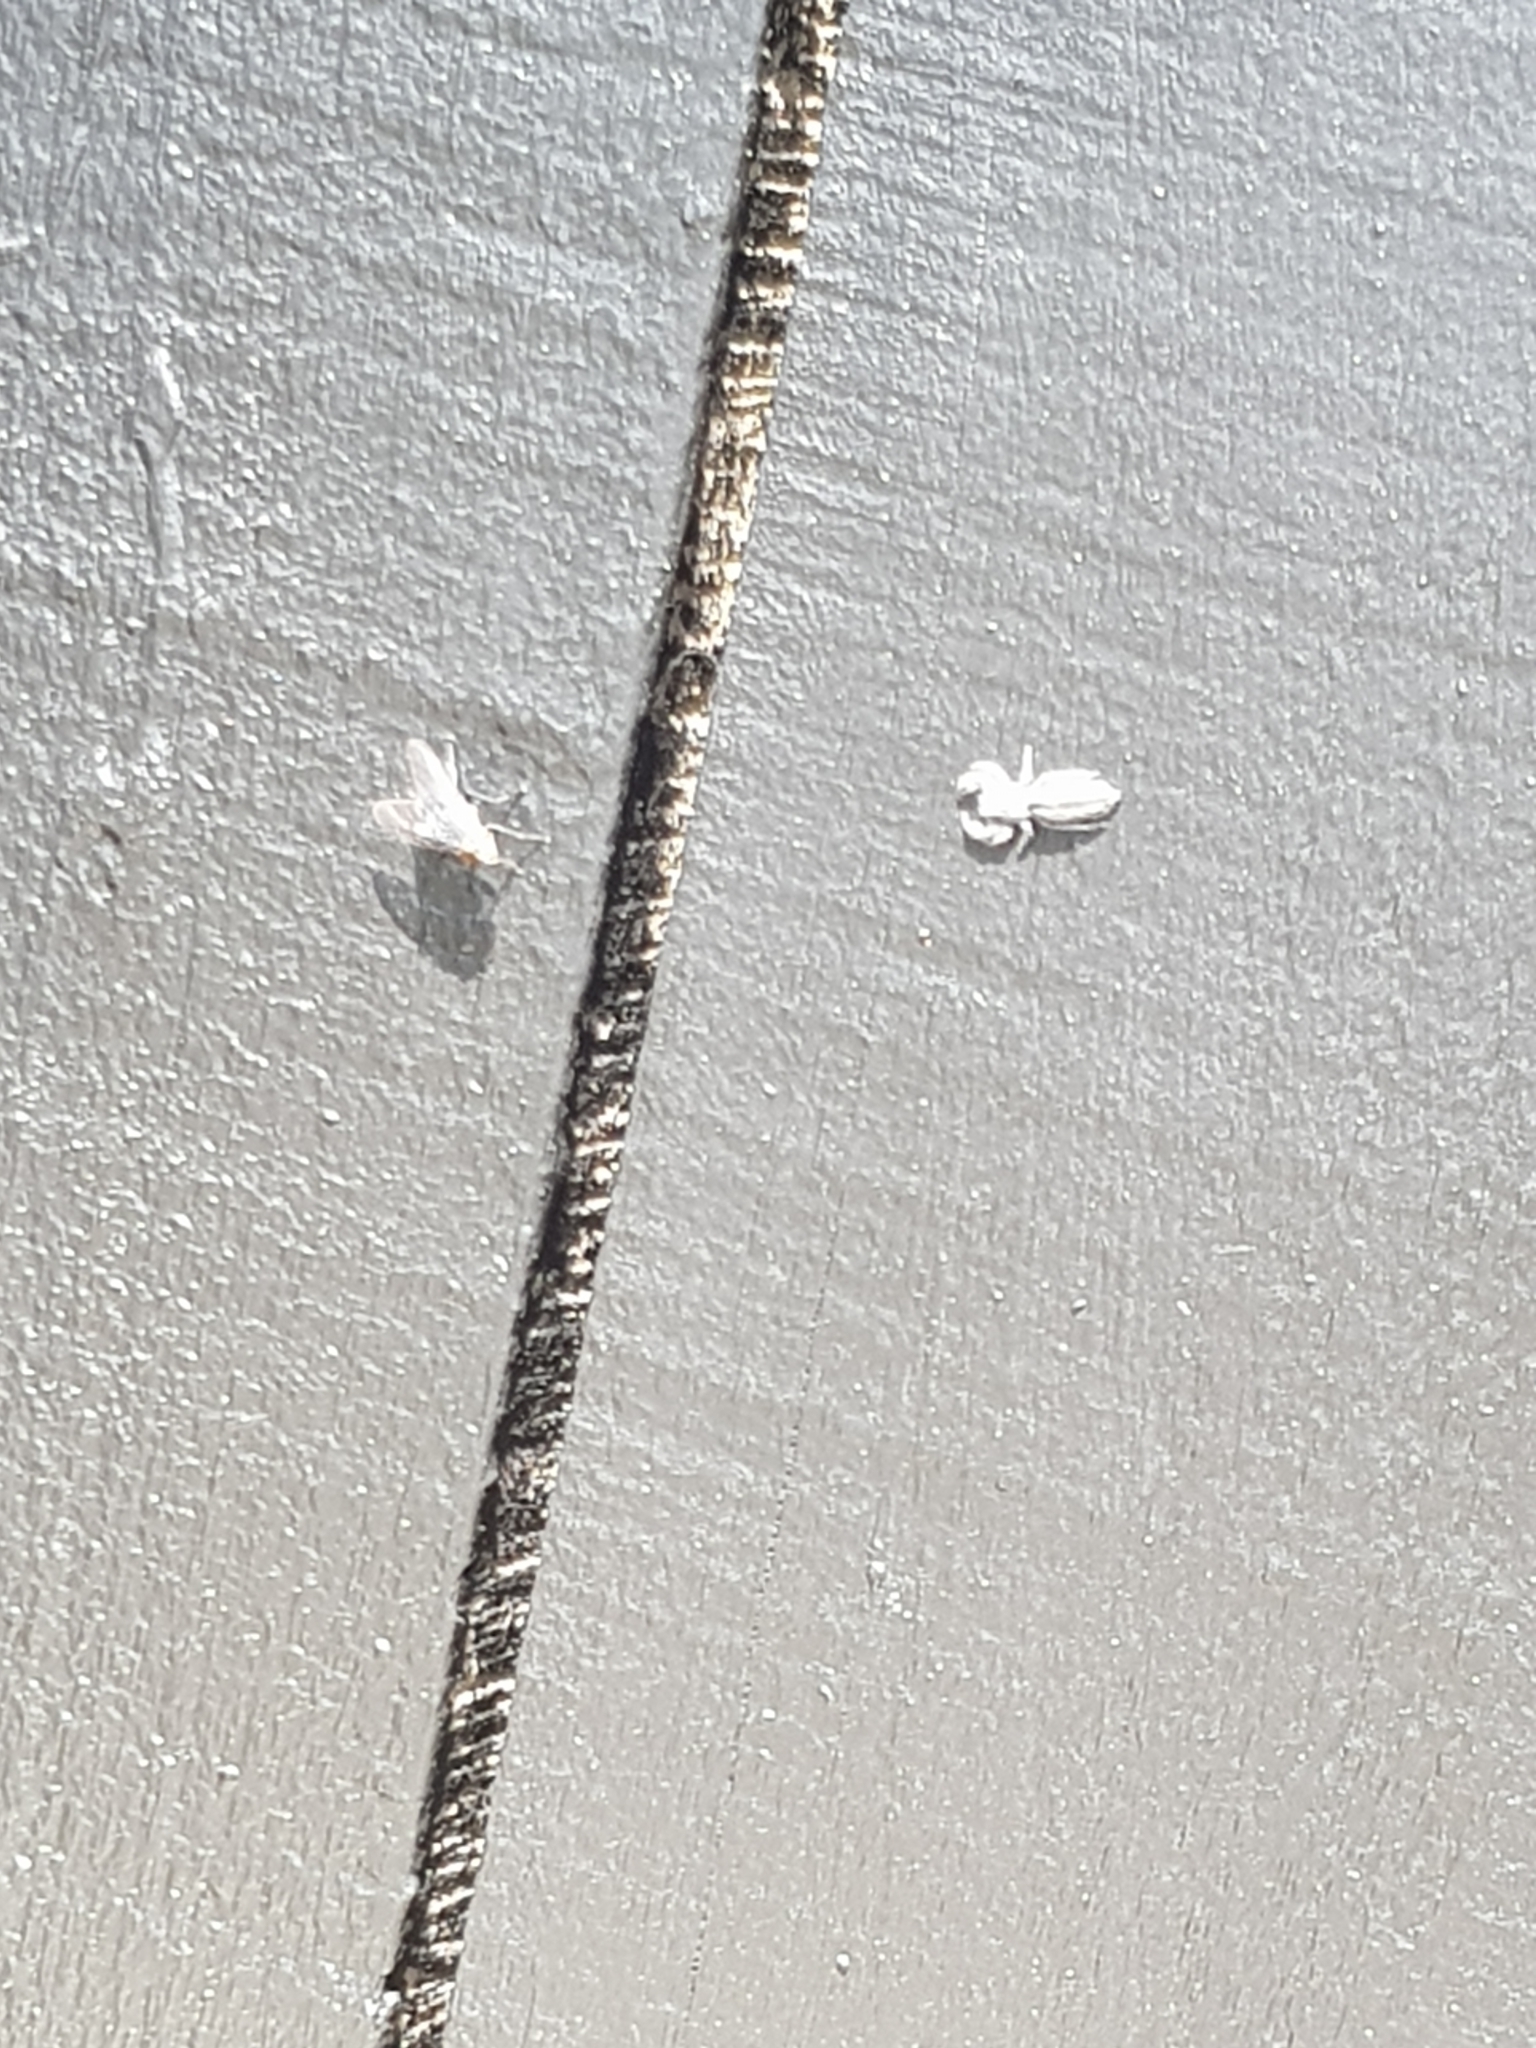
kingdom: Animalia
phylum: Arthropoda
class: Arachnida
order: Araneae
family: Salticidae
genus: Holoplatys
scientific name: Holoplatys
